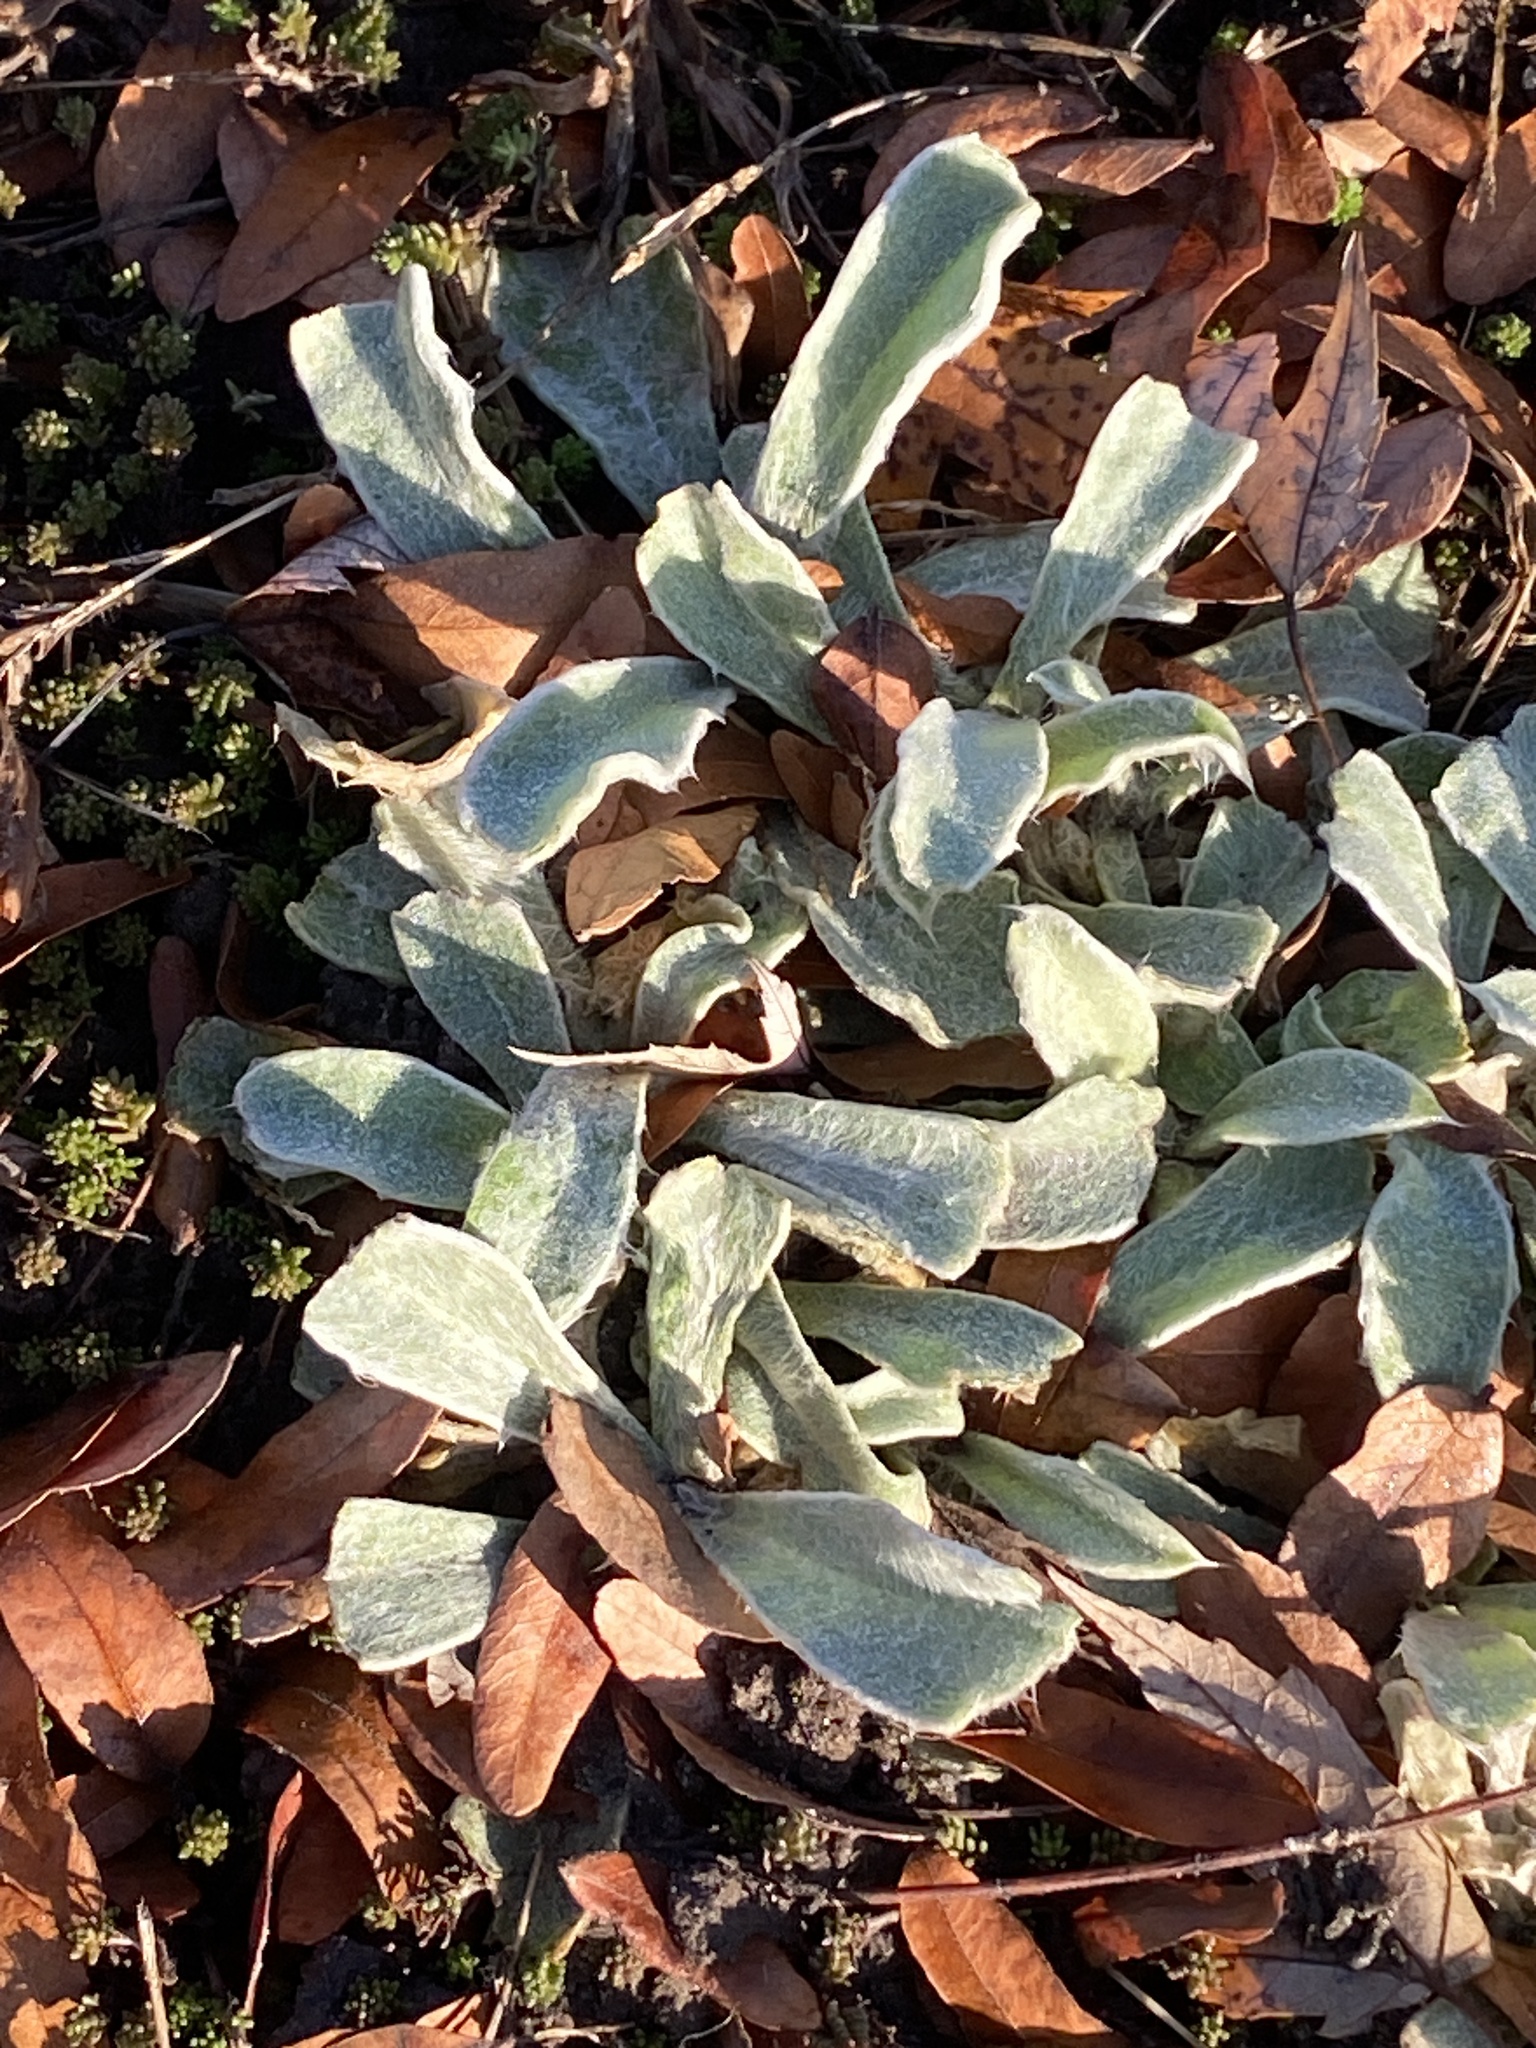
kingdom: Plantae
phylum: Tracheophyta
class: Magnoliopsida
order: Caryophyllales
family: Caryophyllaceae
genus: Silene
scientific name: Silene coronaria
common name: Rose campion
